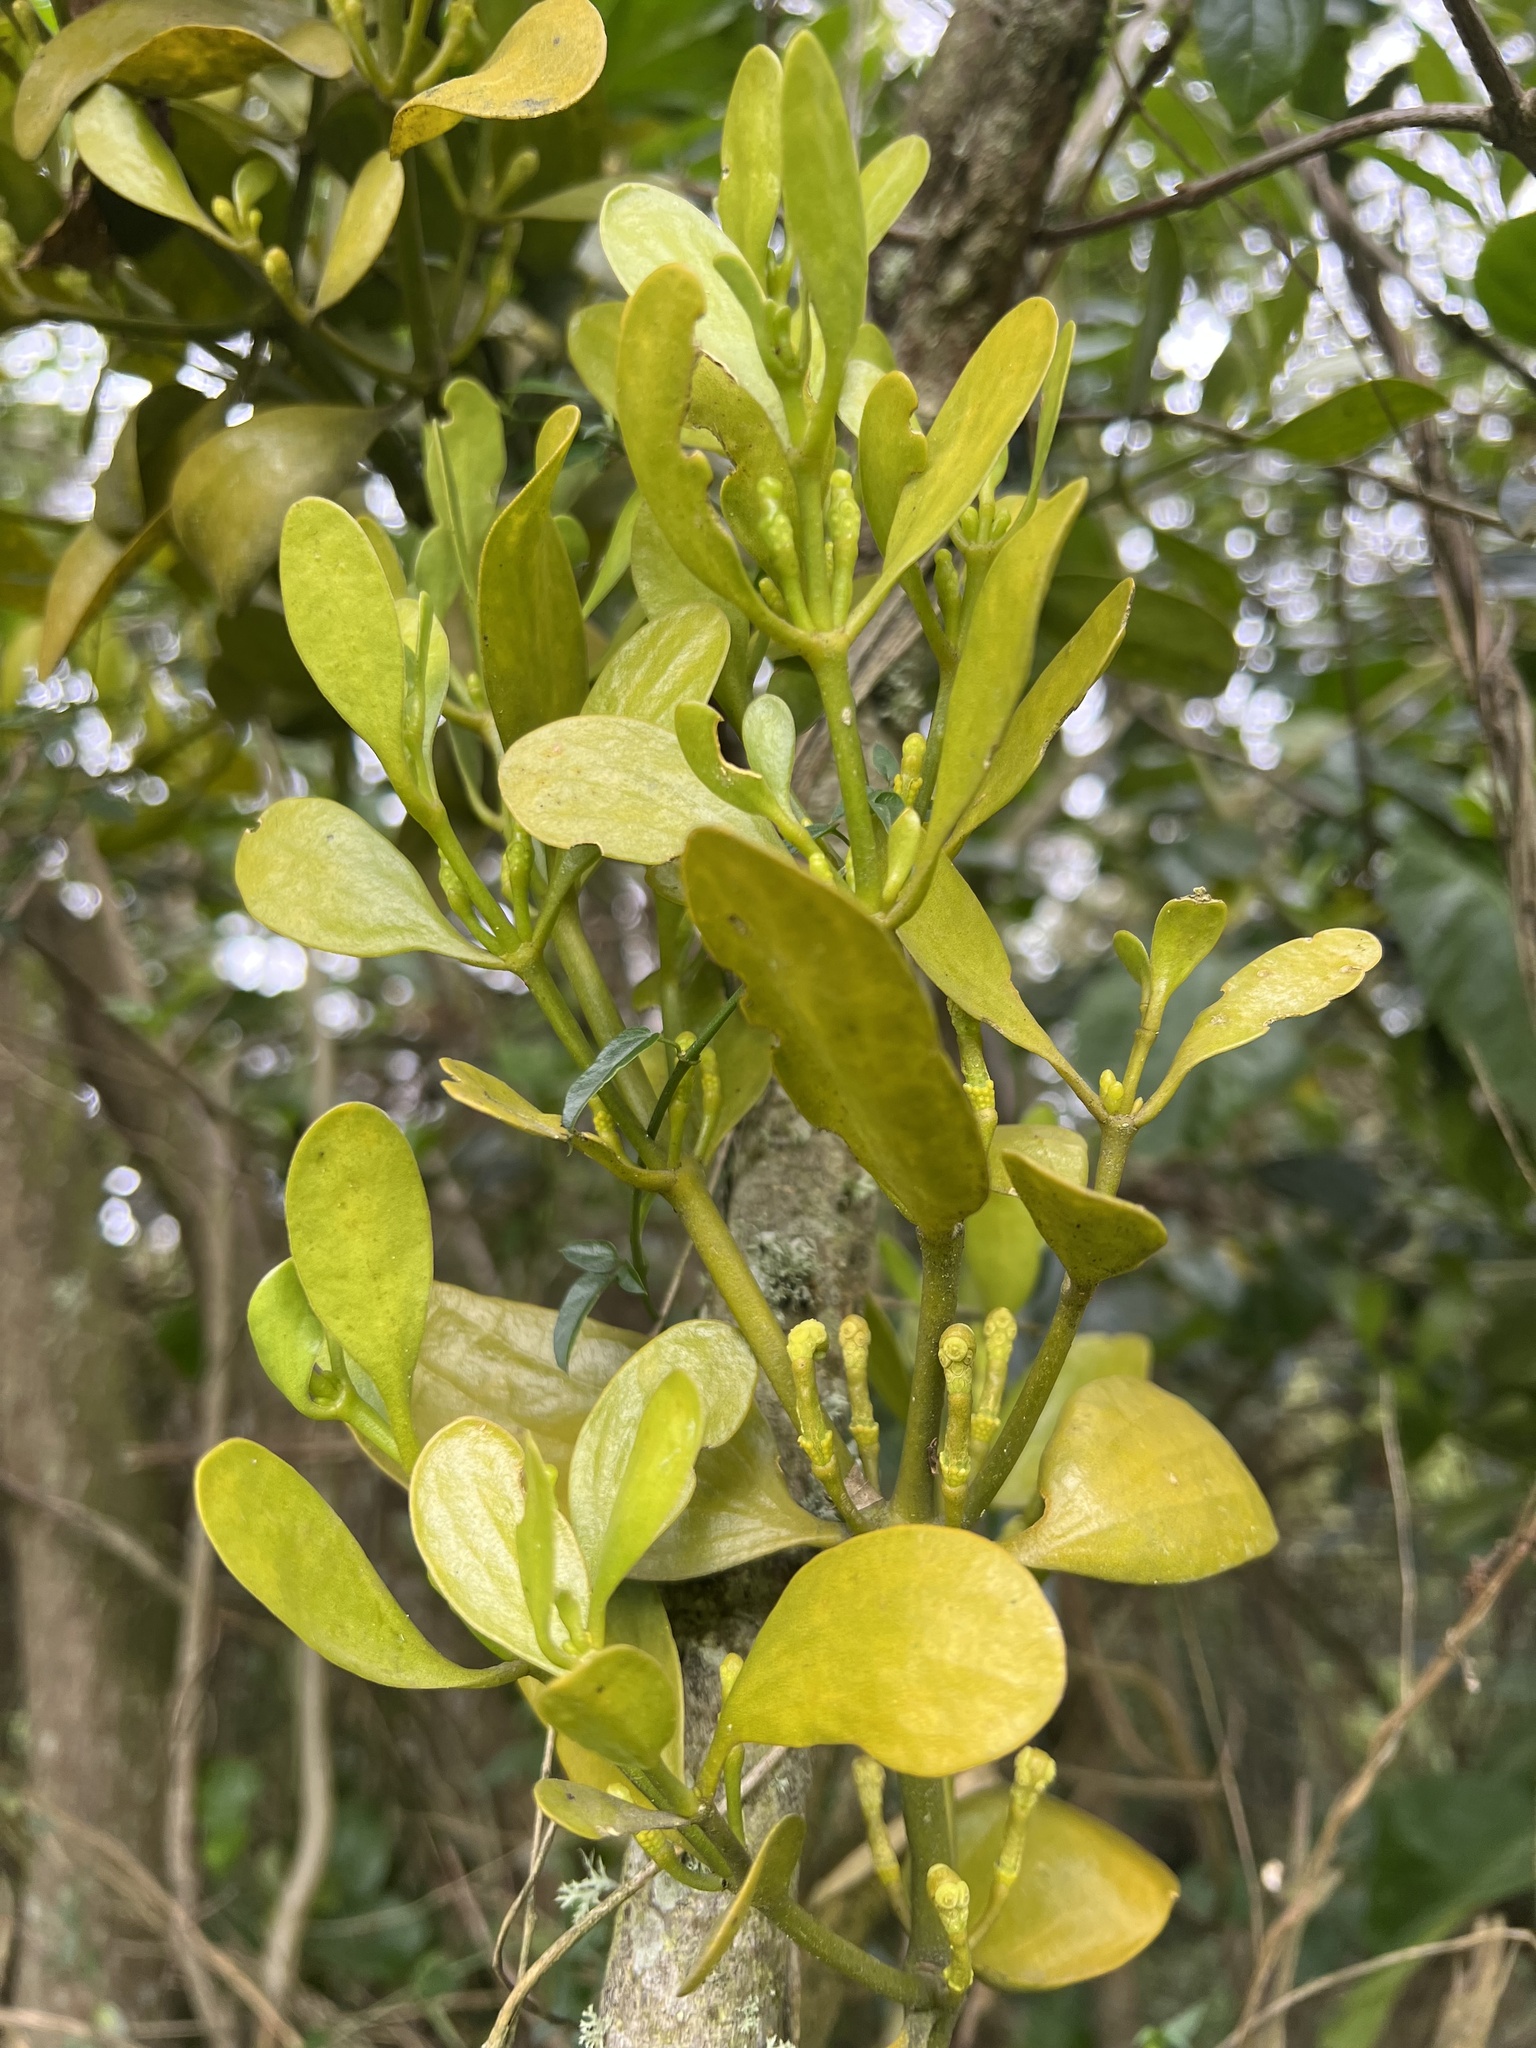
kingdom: Plantae
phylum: Tracheophyta
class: Magnoliopsida
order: Santalales
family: Viscaceae
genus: Dendrophthora
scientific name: Dendrophthora clavata
